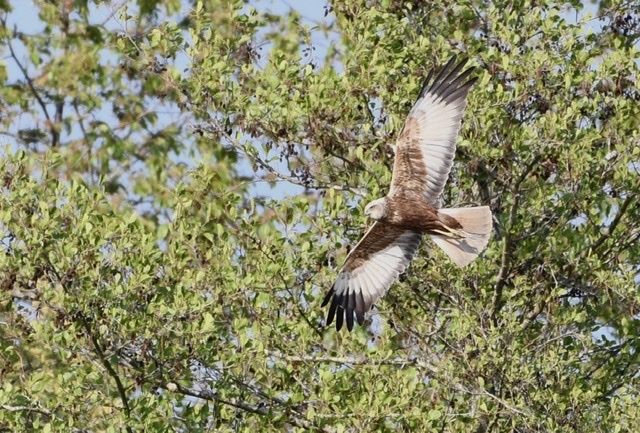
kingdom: Animalia
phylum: Chordata
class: Aves
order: Accipitriformes
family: Accipitridae
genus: Circus
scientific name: Circus aeruginosus
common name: Western marsh harrier
